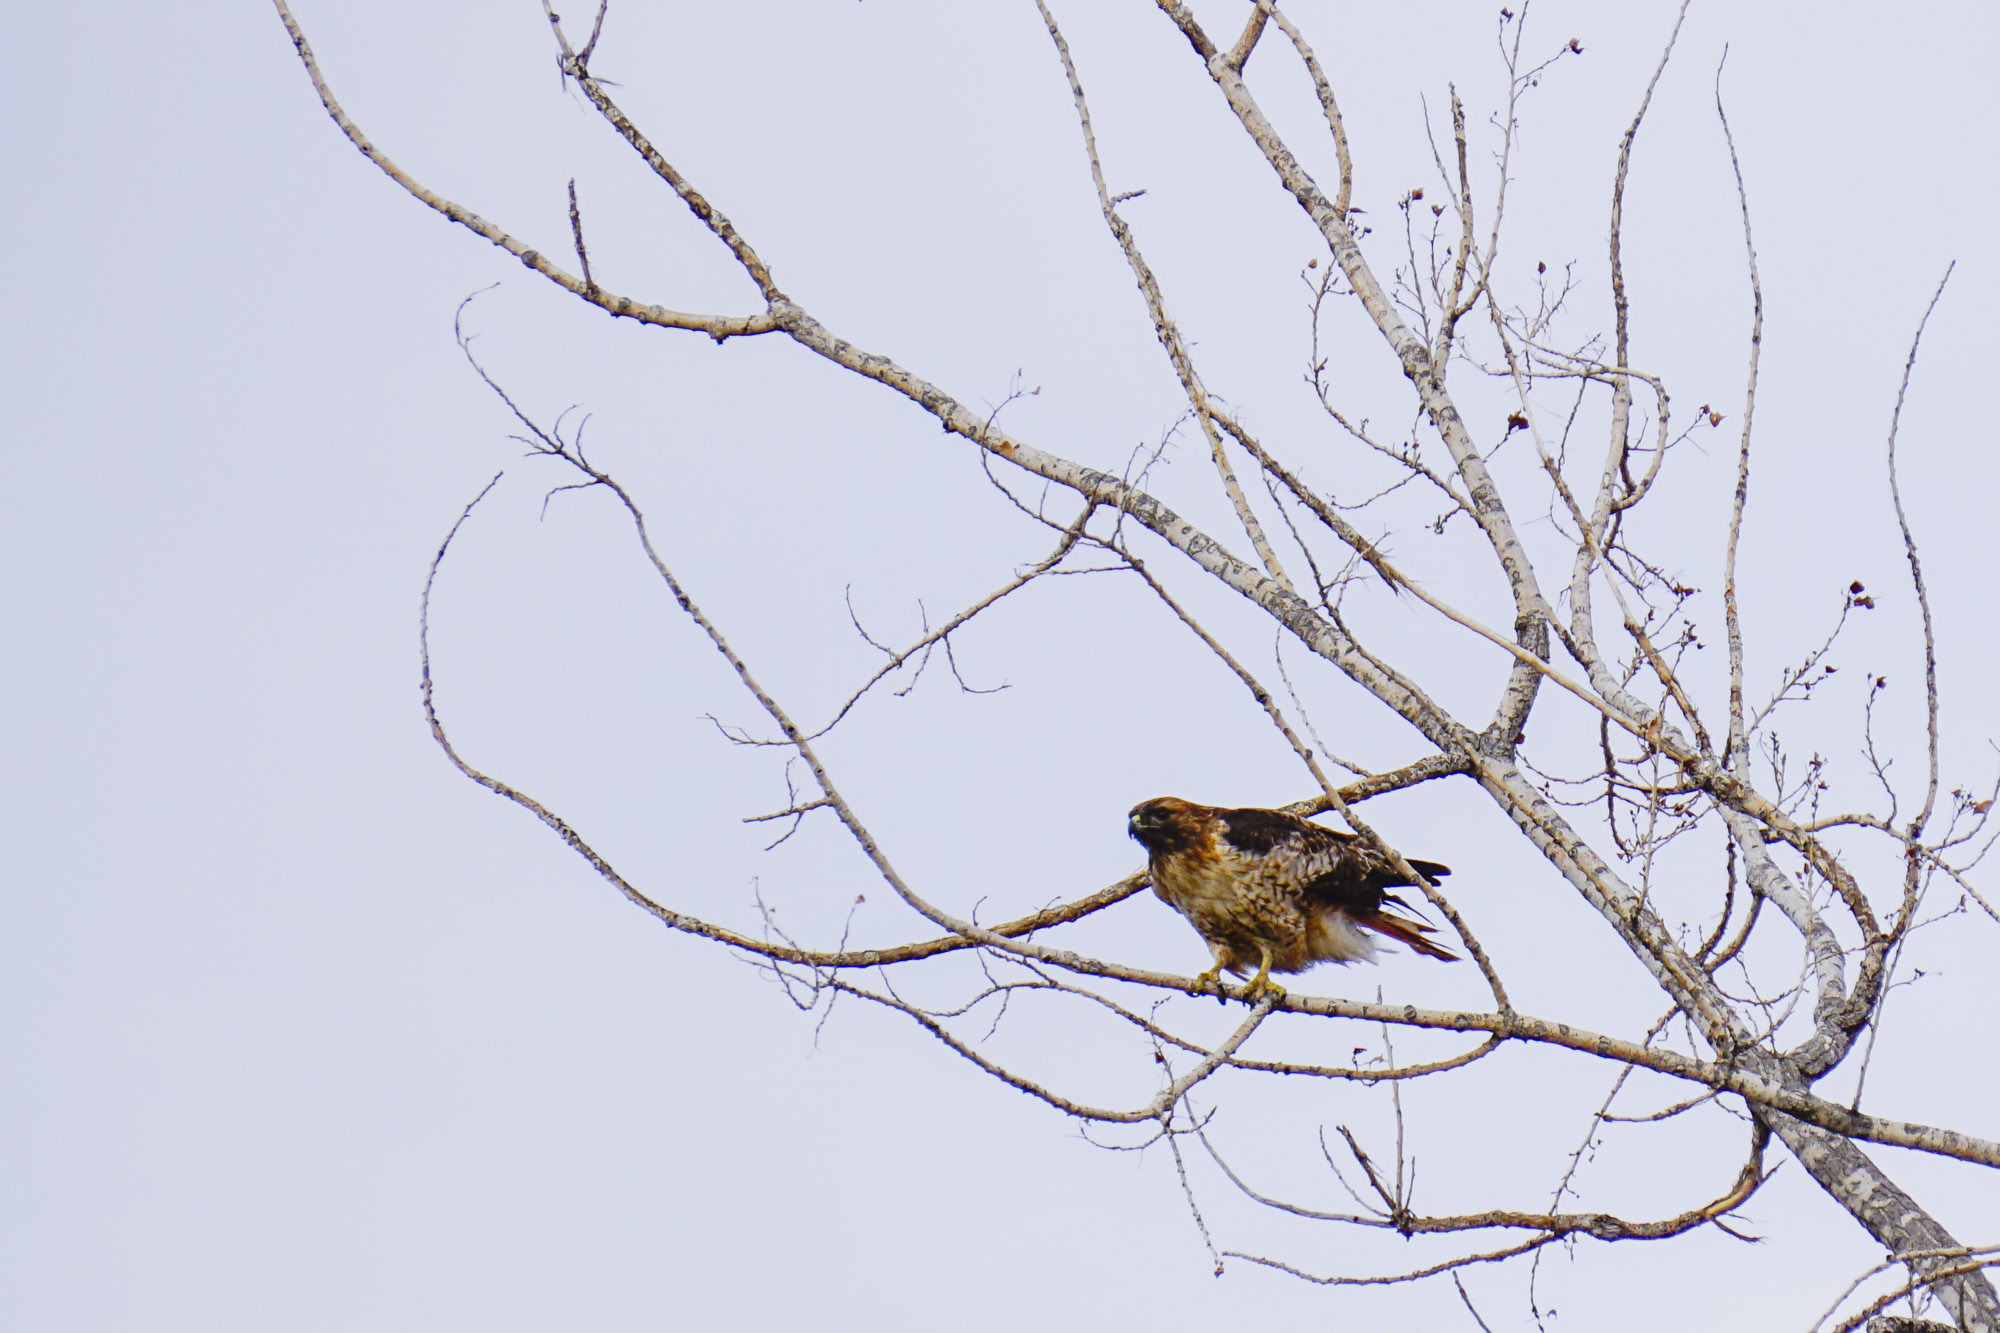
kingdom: Animalia
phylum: Chordata
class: Aves
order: Accipitriformes
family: Accipitridae
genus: Buteo
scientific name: Buteo jamaicensis
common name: Red-tailed hawk
